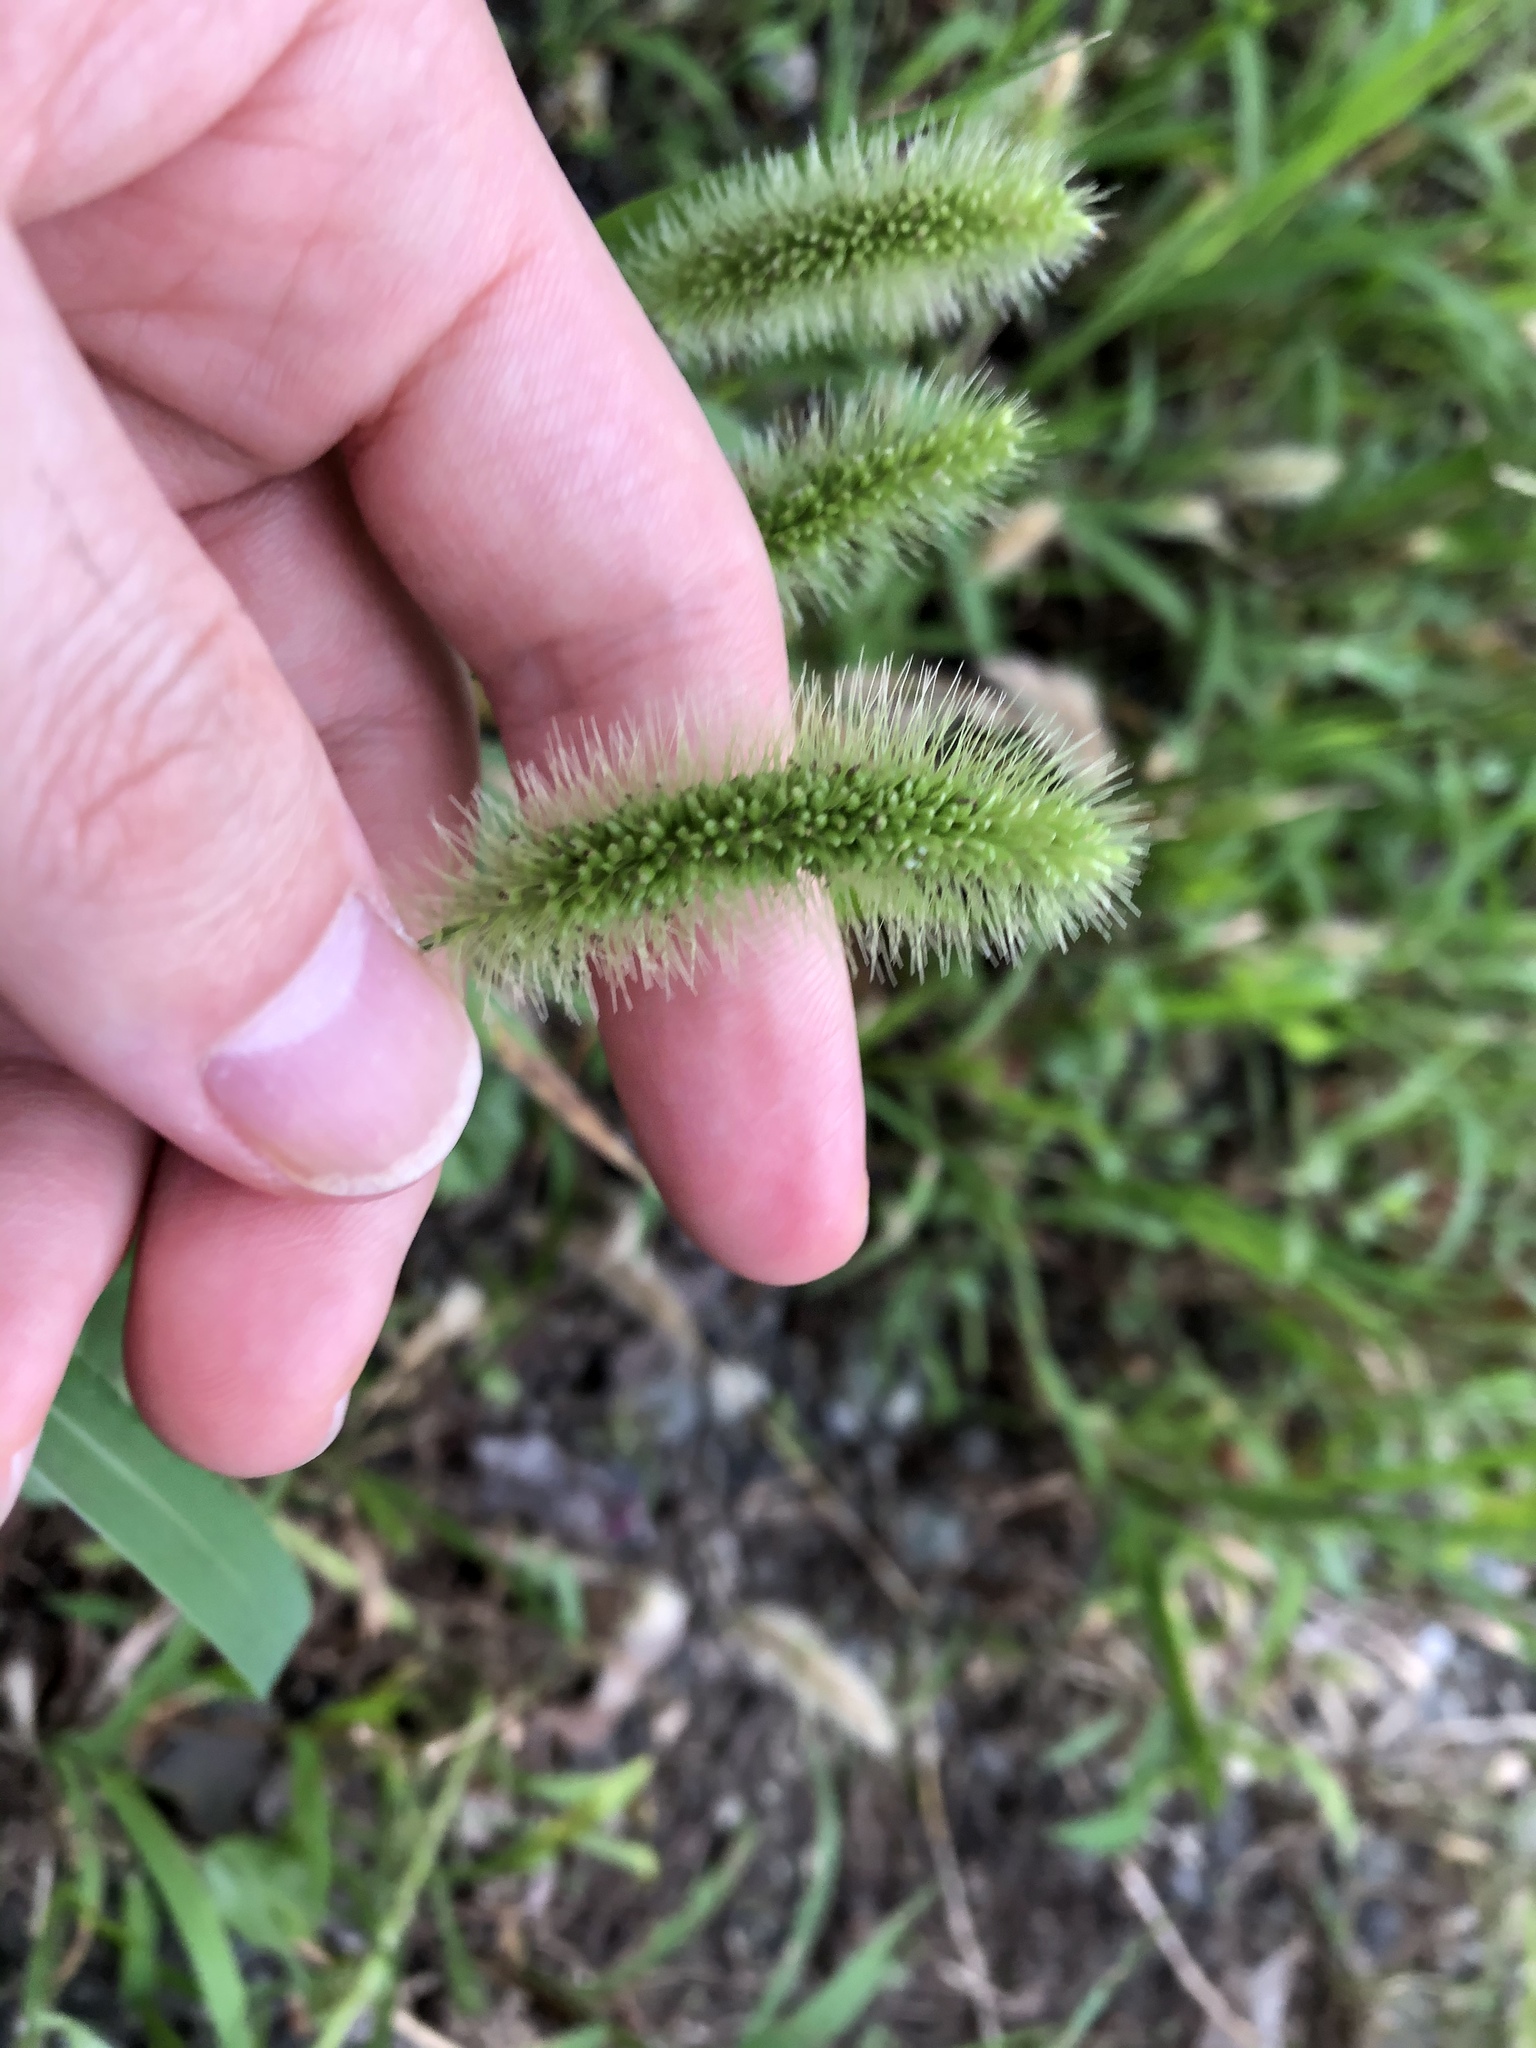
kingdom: Plantae
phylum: Tracheophyta
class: Liliopsida
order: Poales
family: Poaceae
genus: Setaria
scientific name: Setaria viridis
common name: Green bristlegrass
